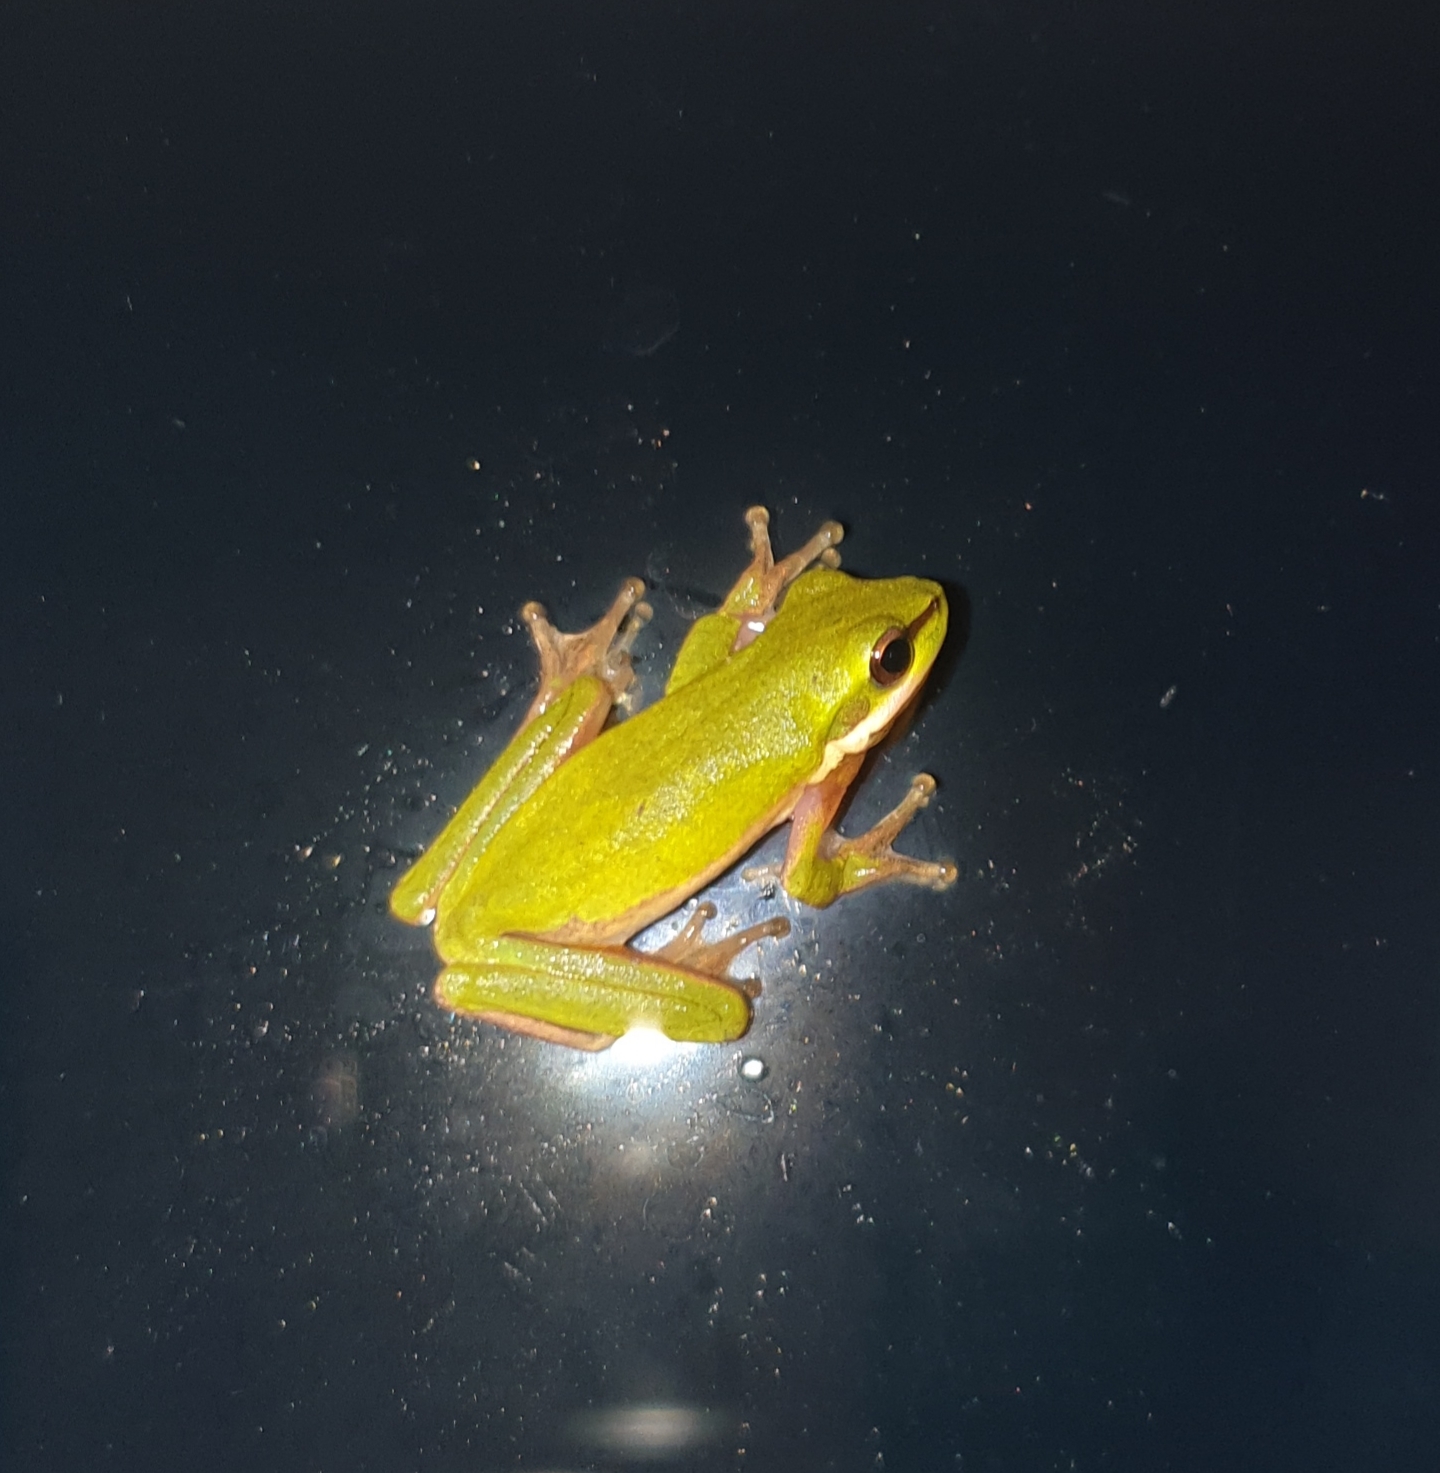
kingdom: Animalia
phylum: Chordata
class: Amphibia
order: Anura
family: Pelodryadidae
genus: Litoria
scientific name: Litoria fallax
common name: Eastern dwarf treefrog
